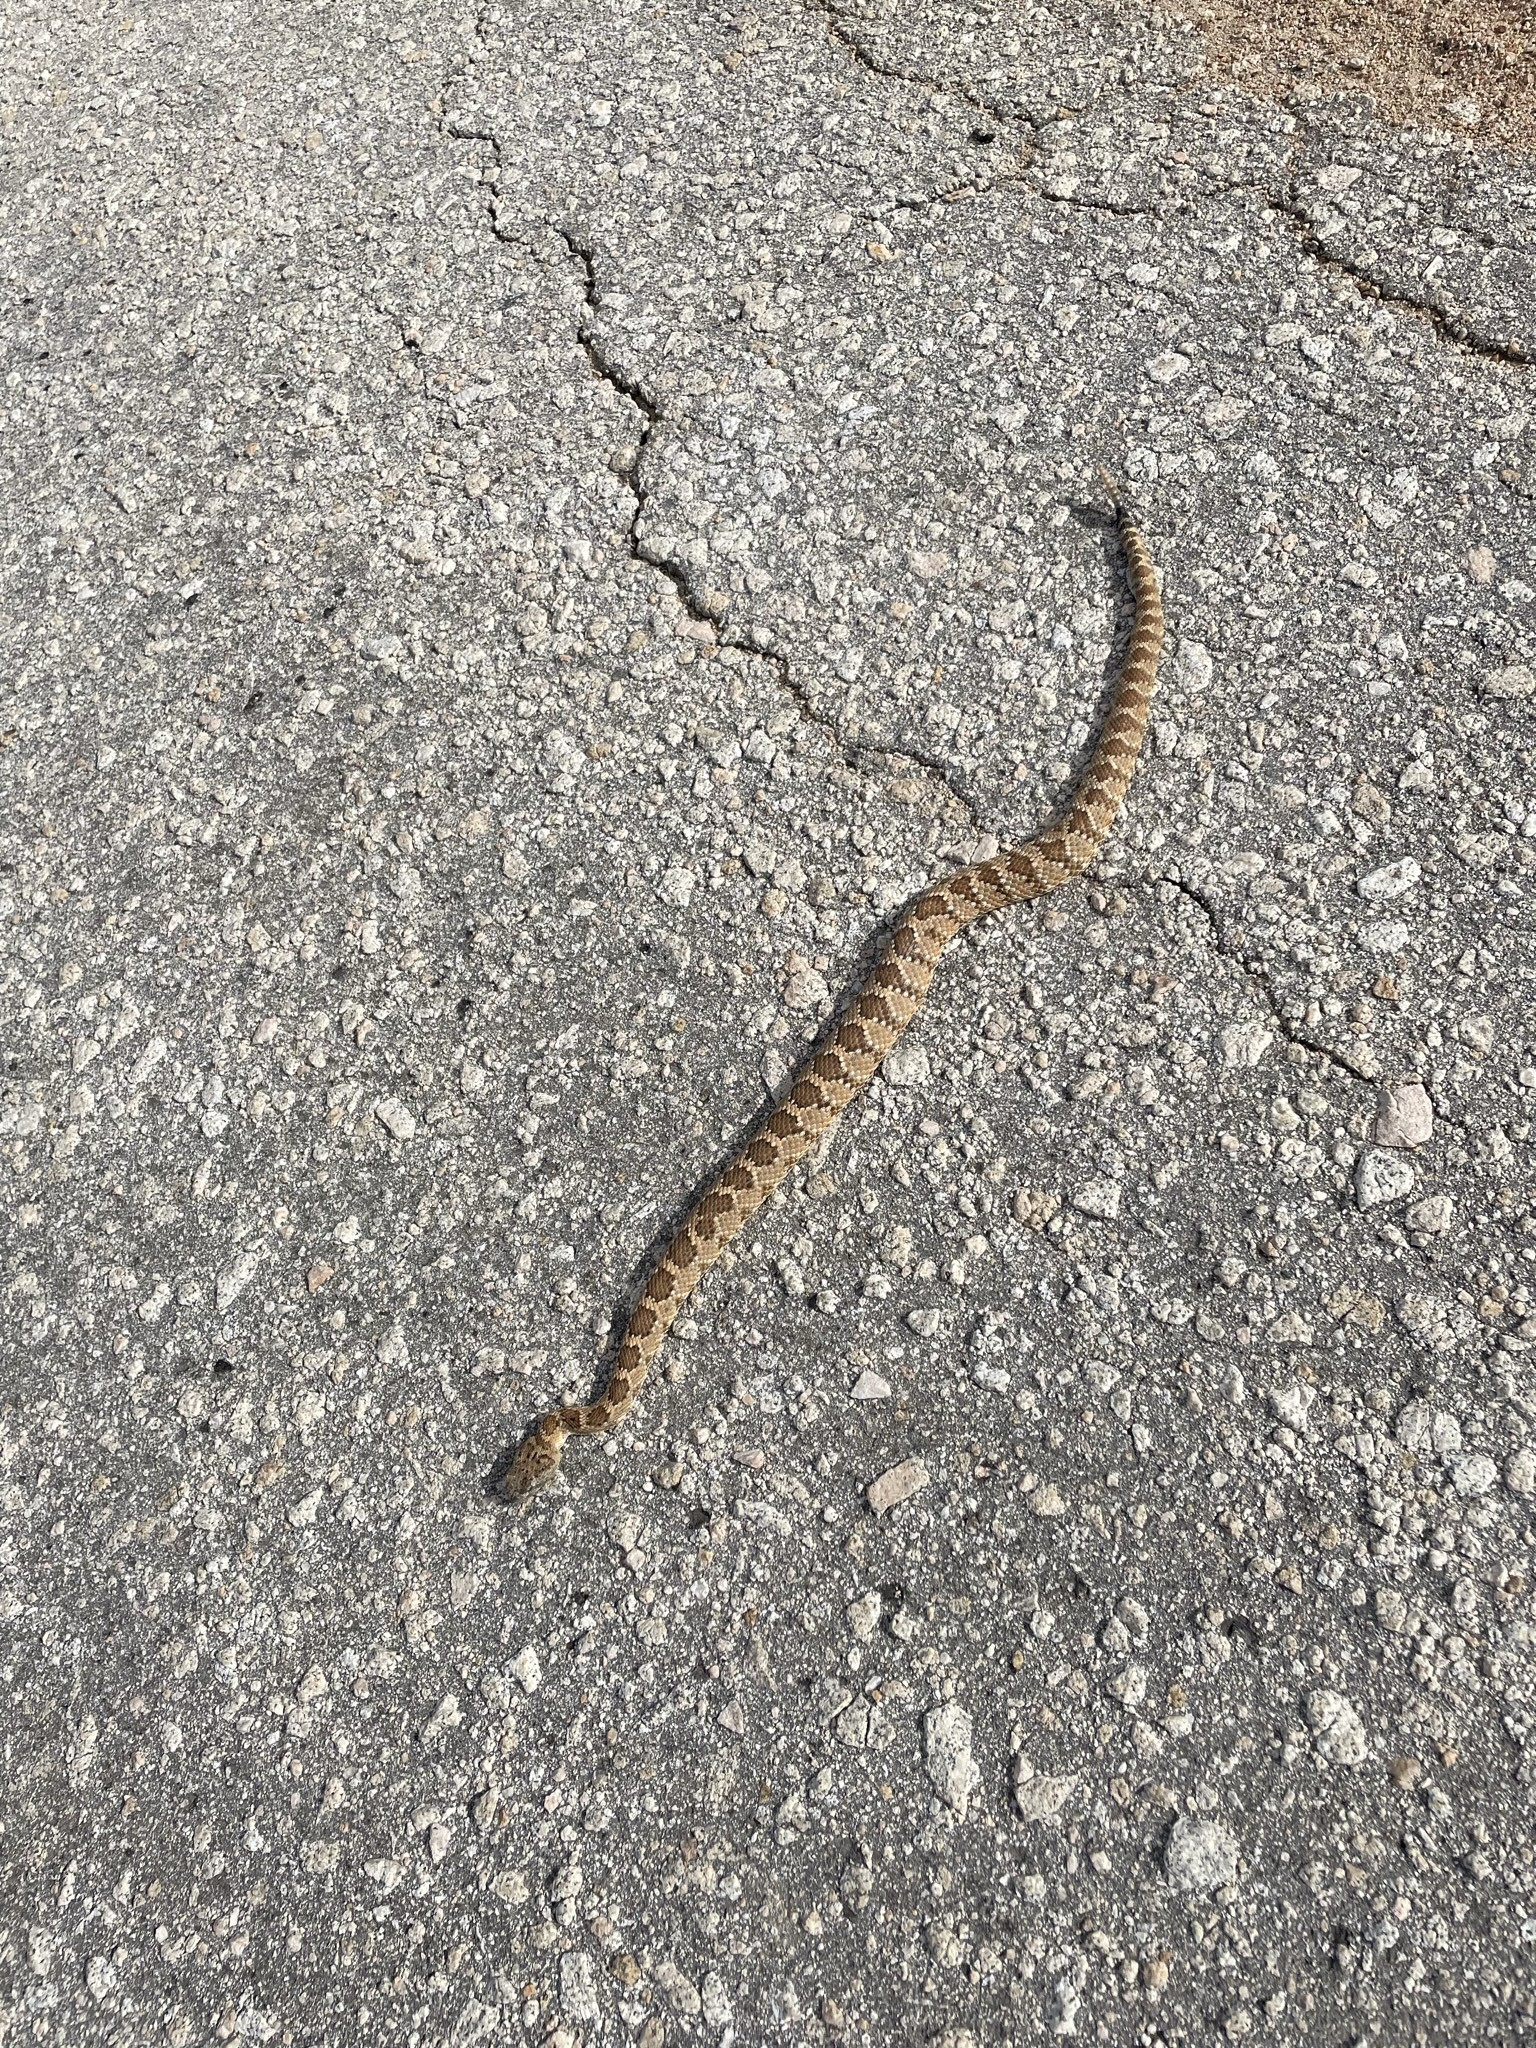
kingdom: Animalia
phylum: Chordata
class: Squamata
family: Viperidae
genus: Crotalus
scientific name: Crotalus stephensi
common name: Panamint rattlesnake
